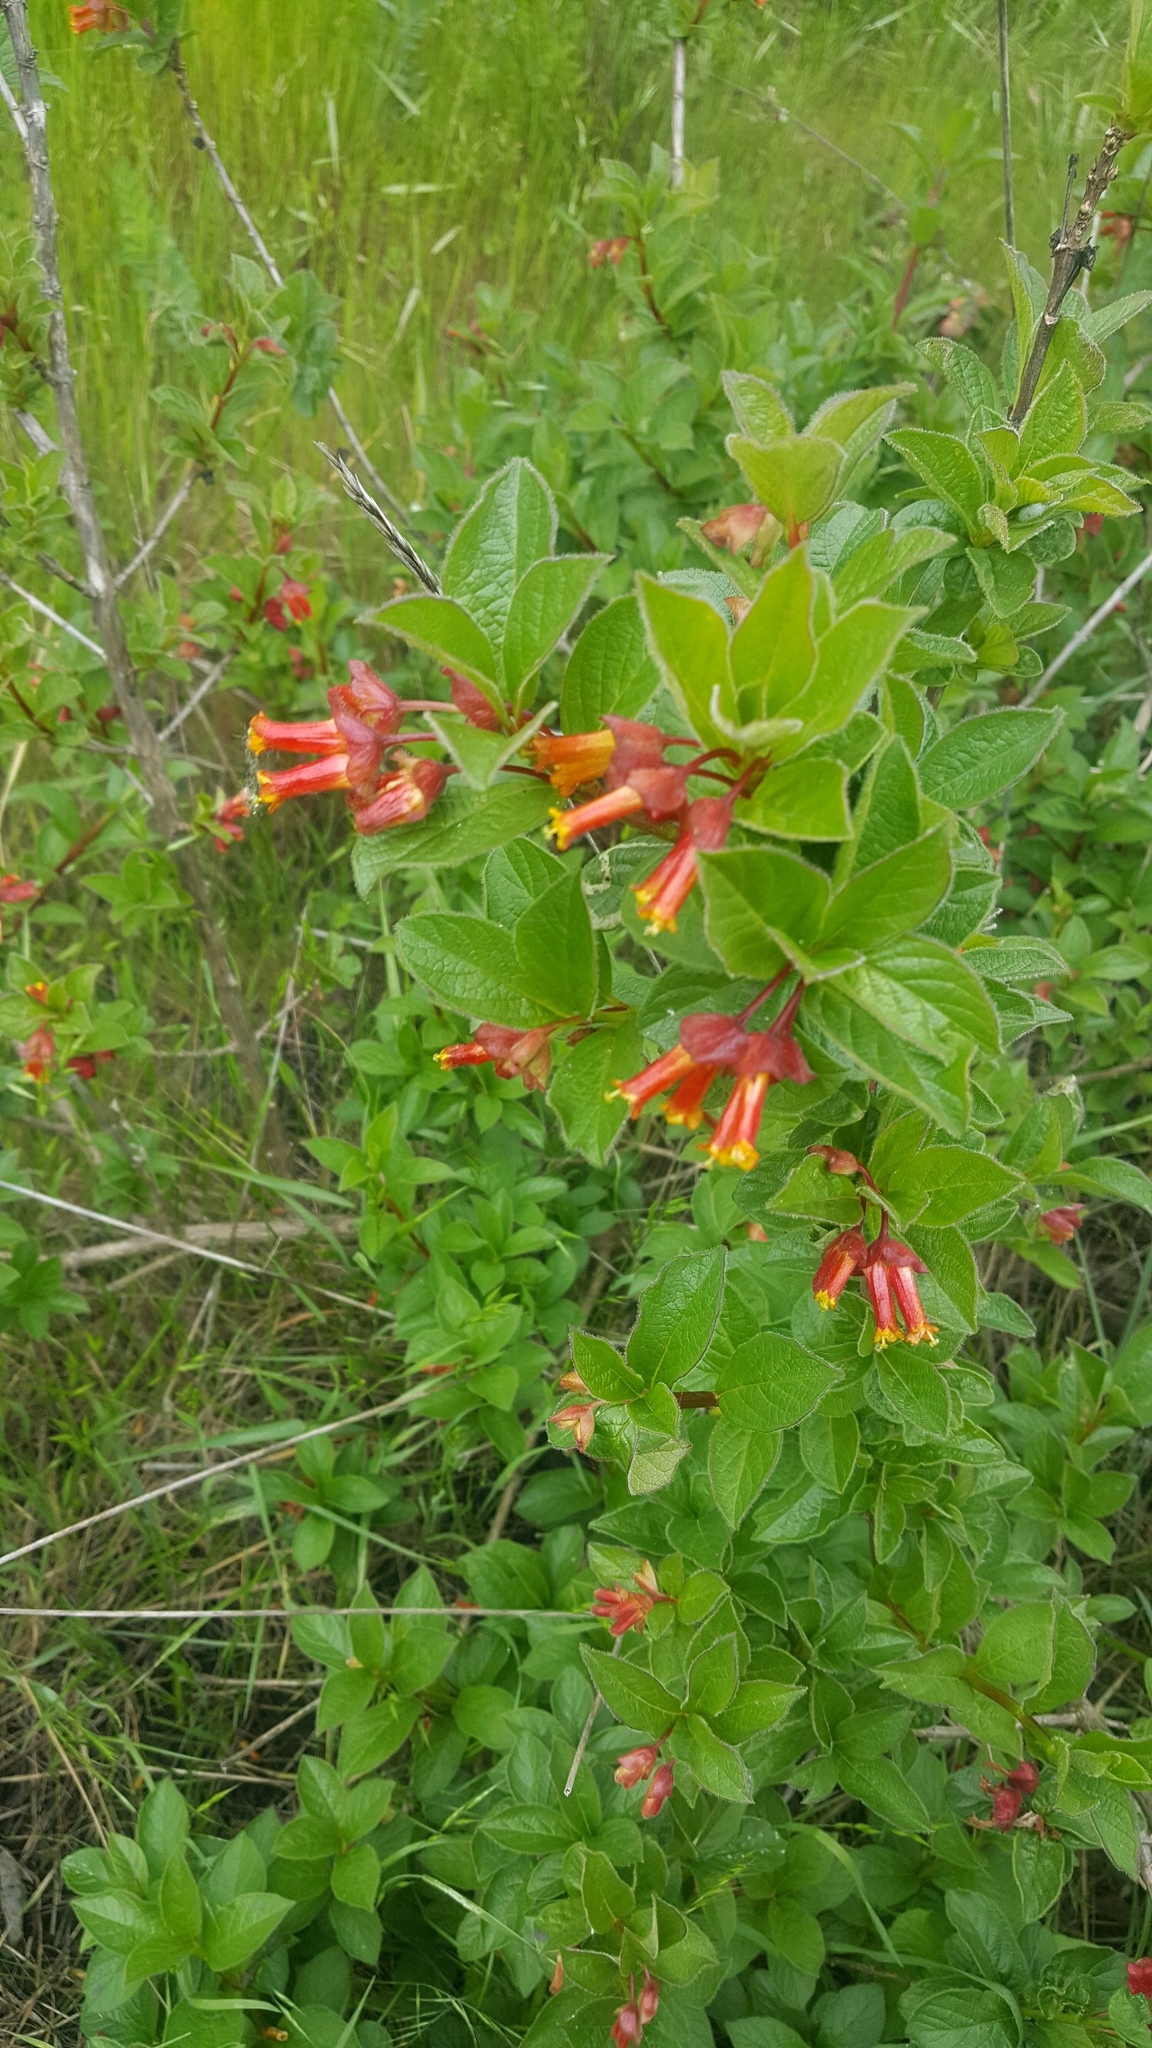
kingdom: Plantae
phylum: Tracheophyta
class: Magnoliopsida
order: Dipsacales
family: Caprifoliaceae
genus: Lonicera
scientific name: Lonicera involucrata
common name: Californian honeysuckle
